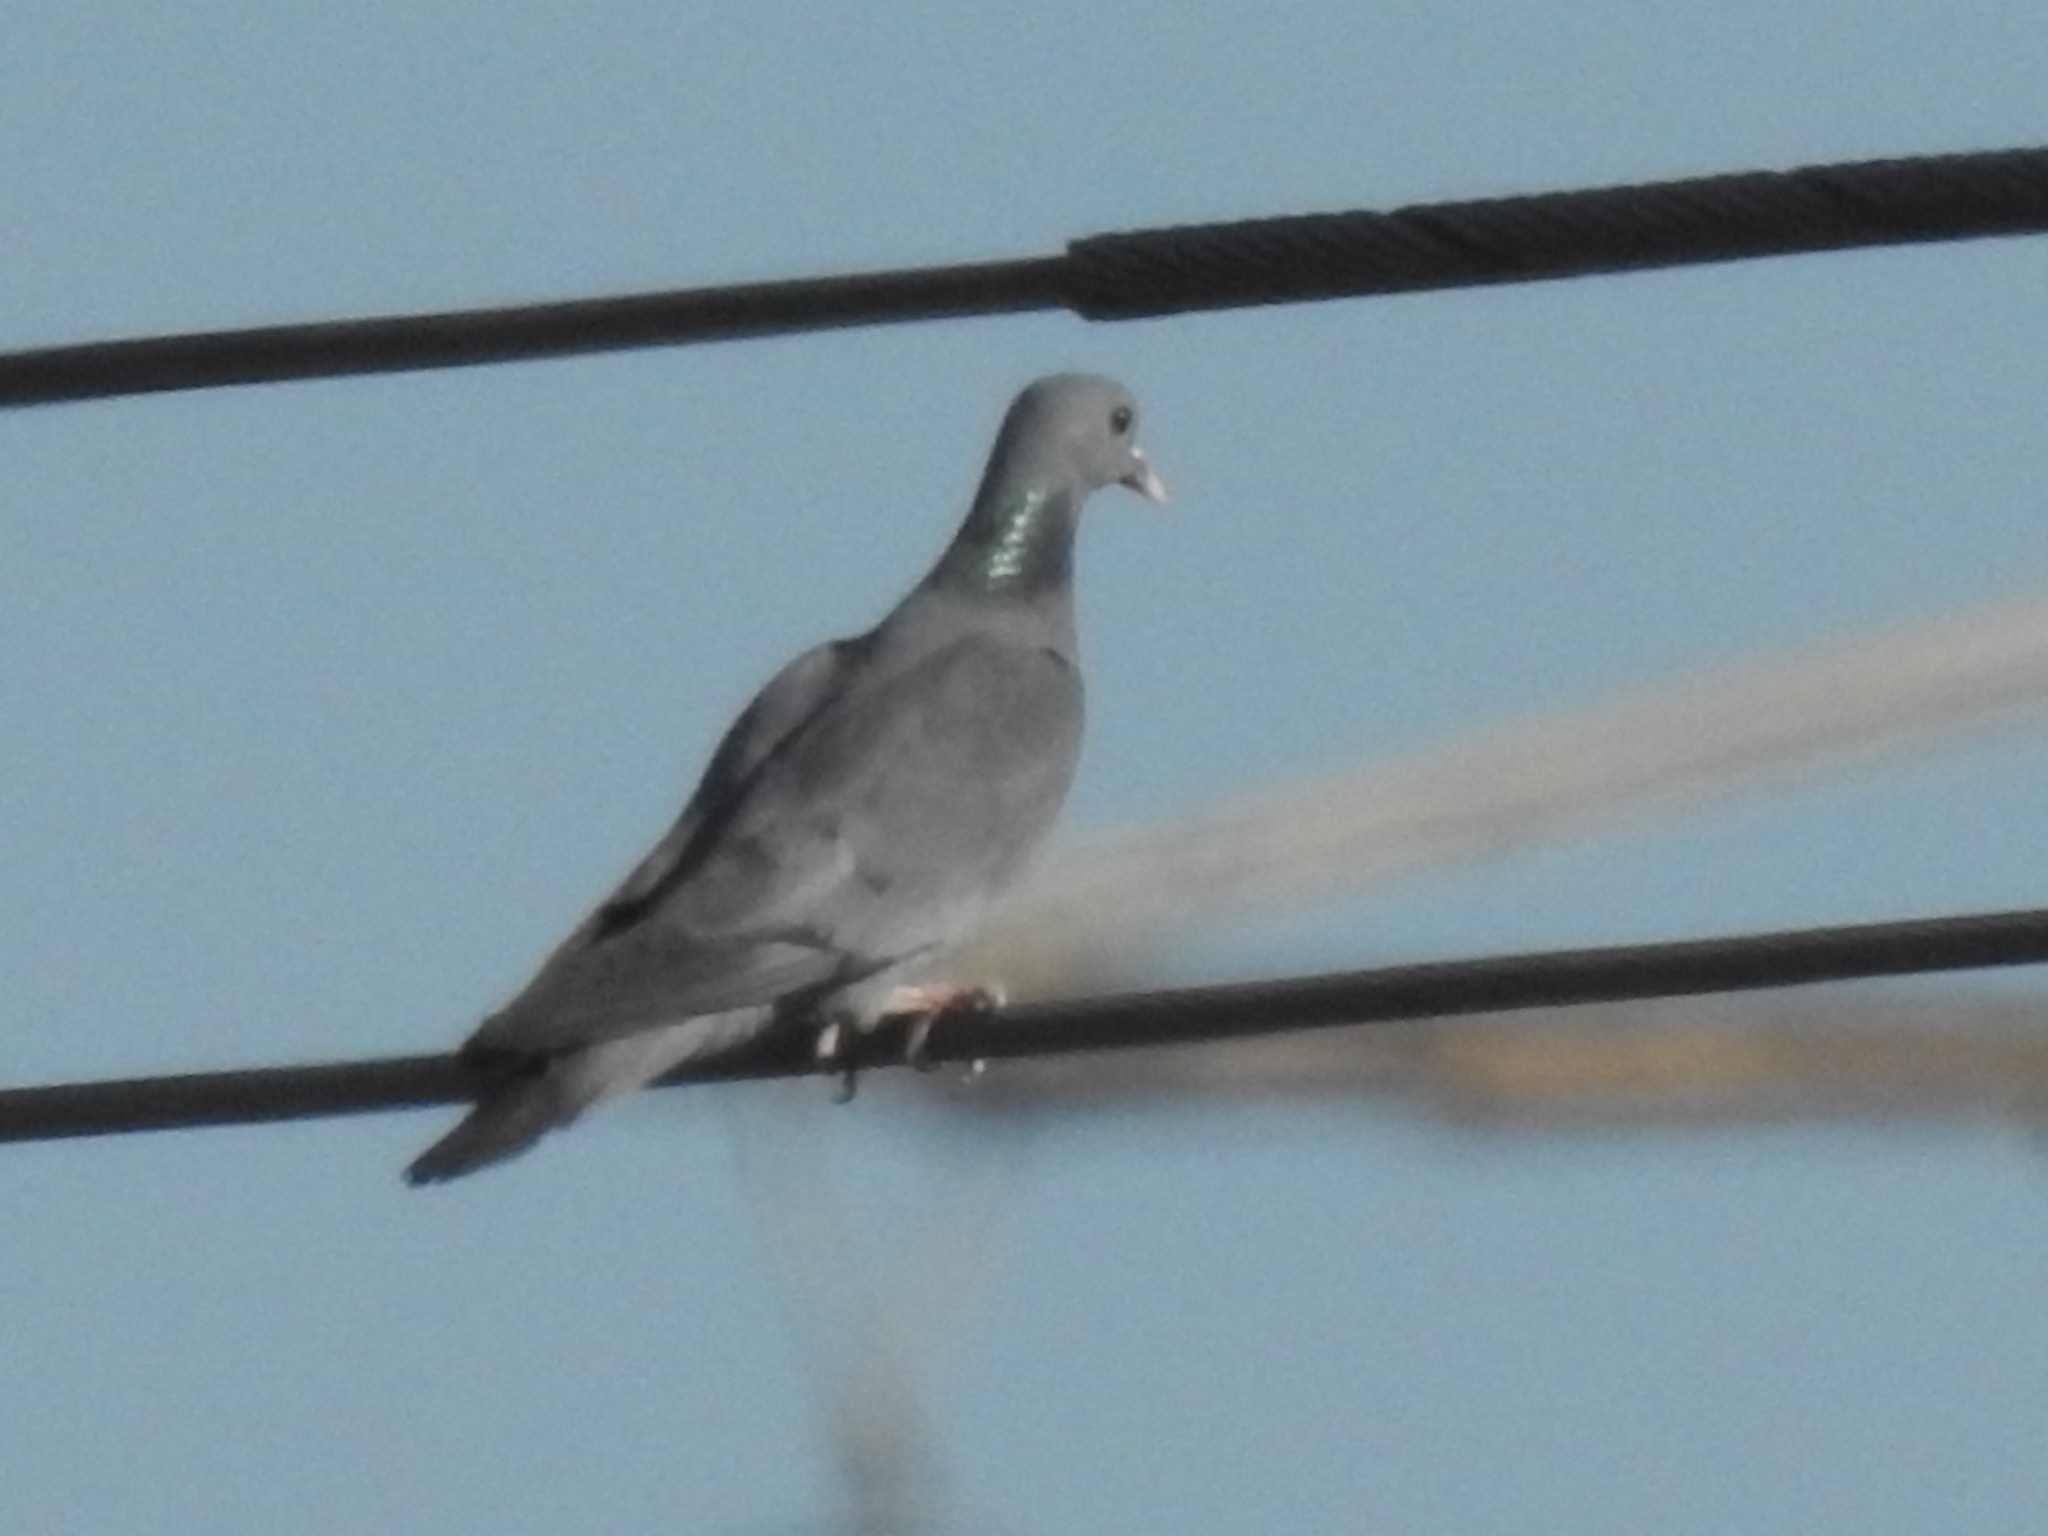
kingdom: Animalia
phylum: Chordata
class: Aves
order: Columbiformes
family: Columbidae
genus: Columba
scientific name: Columba oenas
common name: Stock dove
